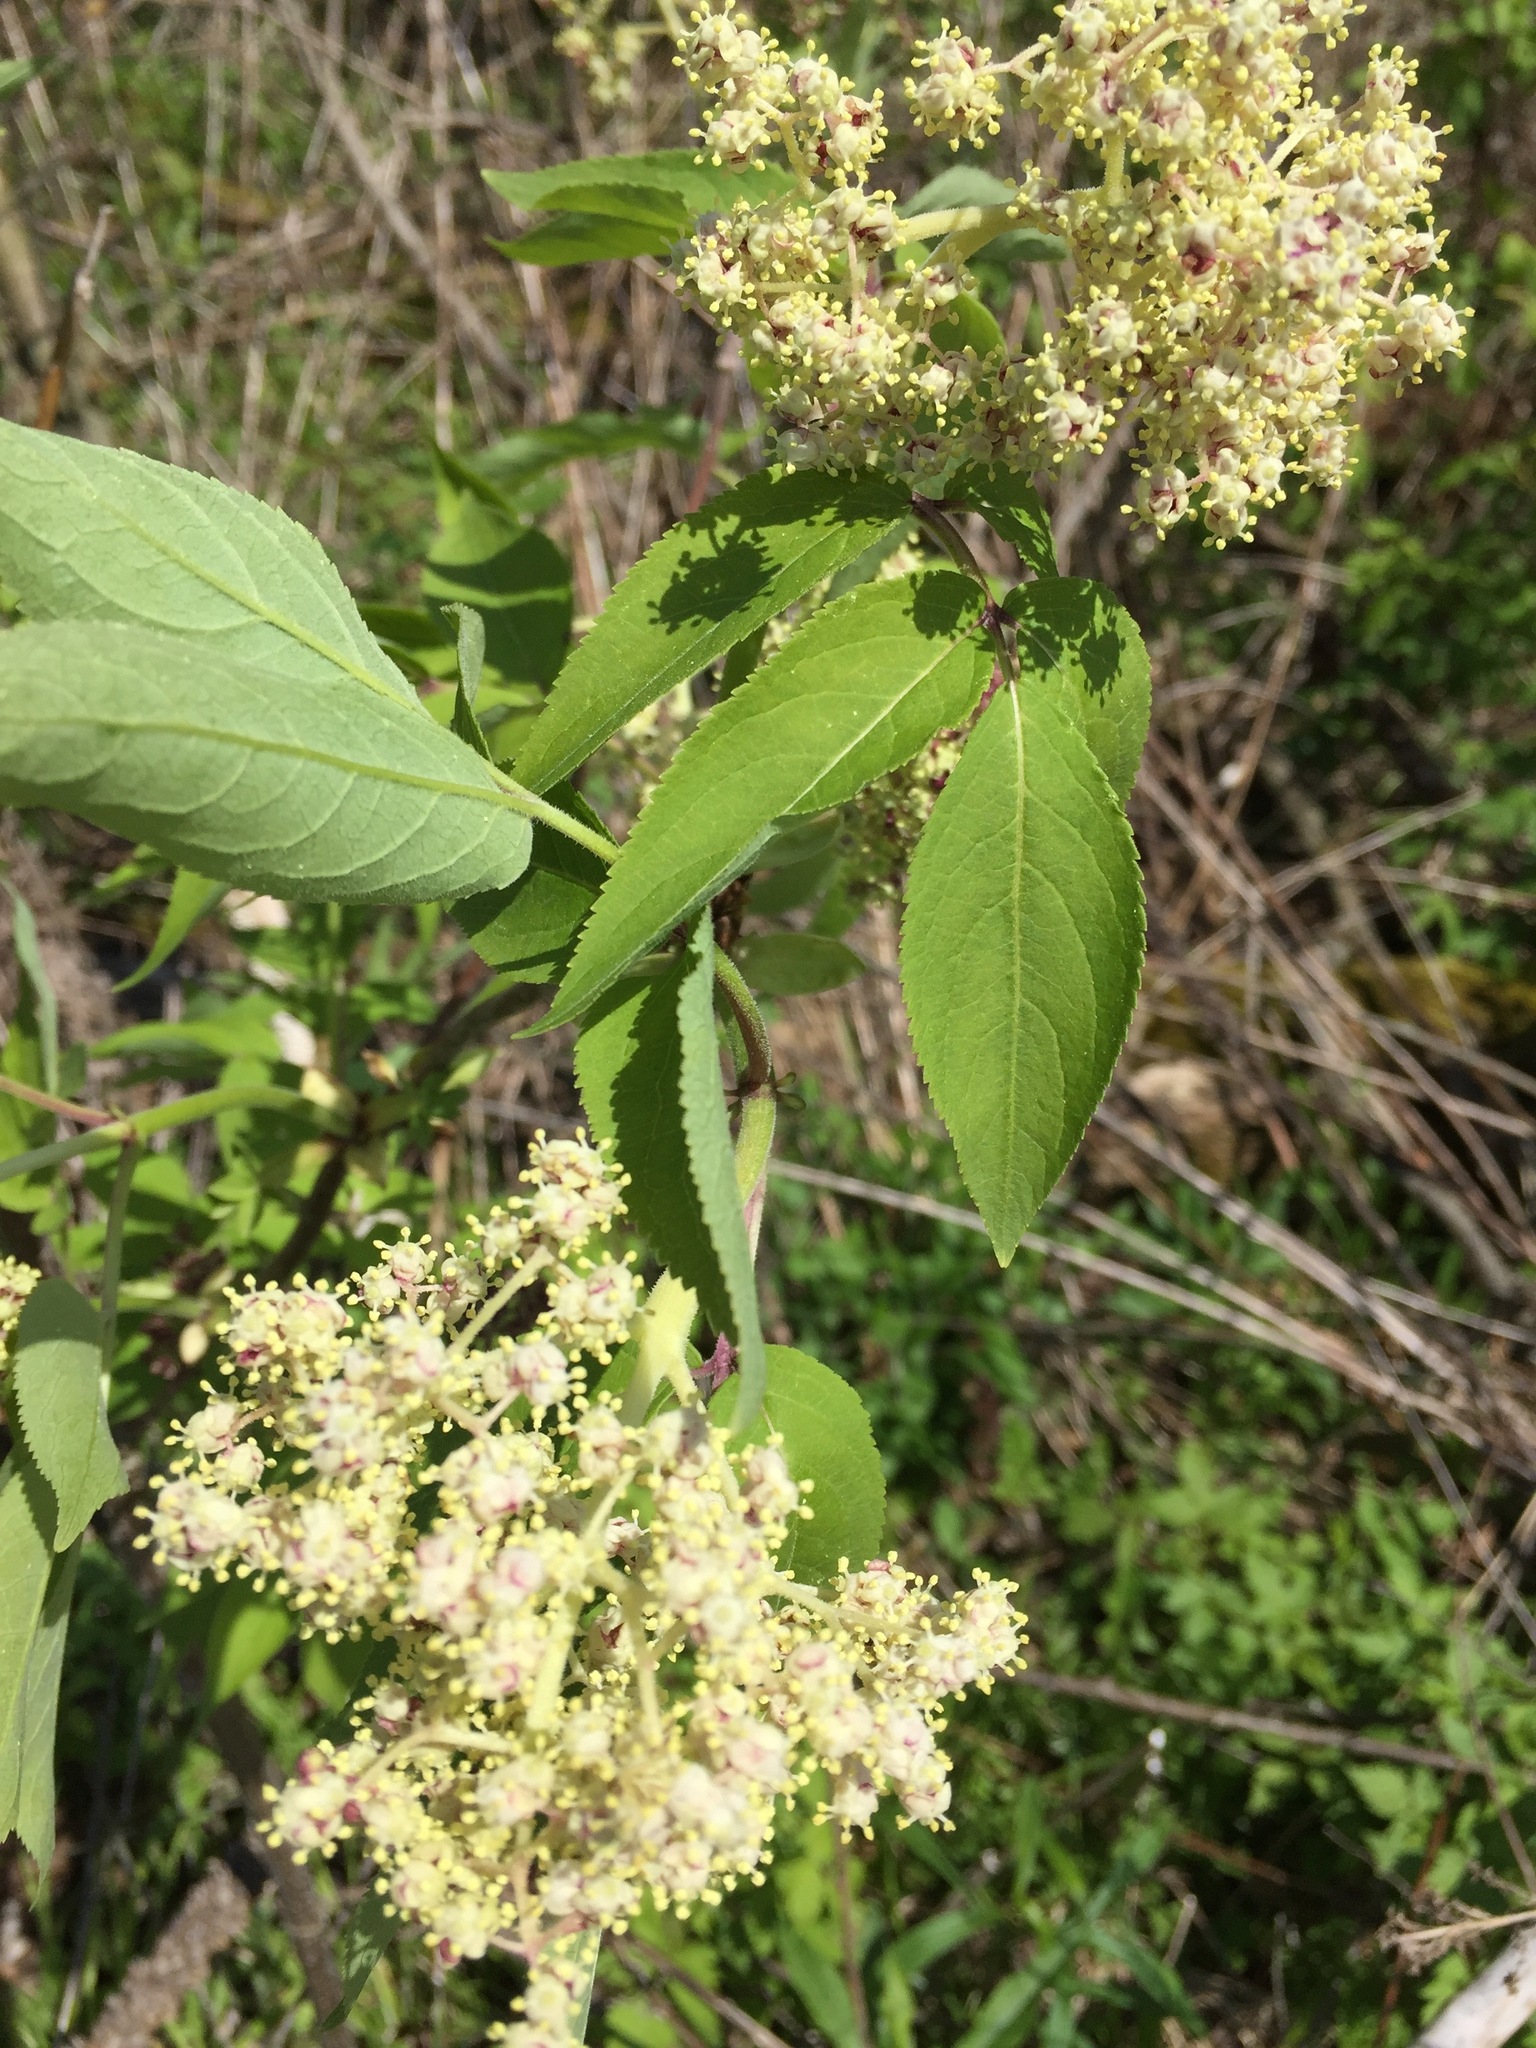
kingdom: Plantae
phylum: Tracheophyta
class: Magnoliopsida
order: Dipsacales
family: Viburnaceae
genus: Sambucus
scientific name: Sambucus racemosa
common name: Red-berried elder
